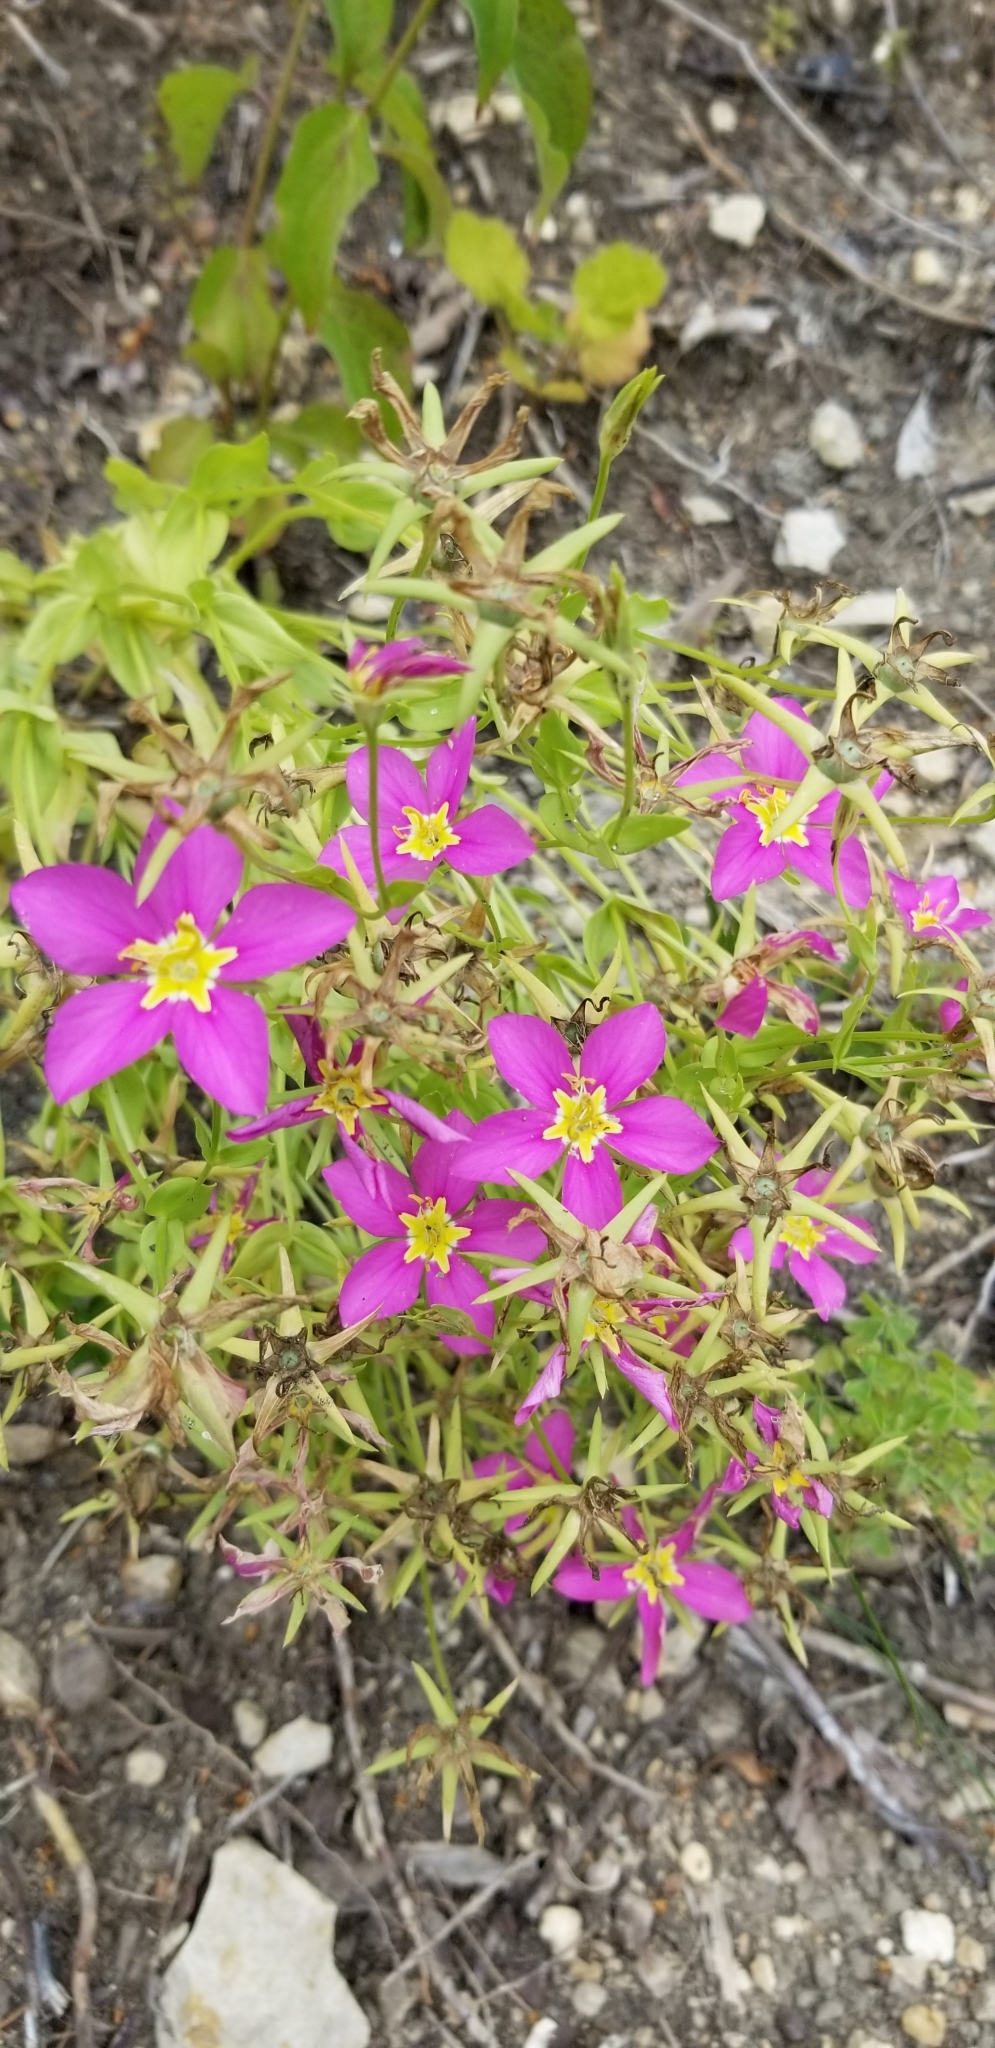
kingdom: Plantae
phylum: Tracheophyta
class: Magnoliopsida
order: Gentianales
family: Gentianaceae
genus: Sabatia
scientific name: Sabatia campestris
